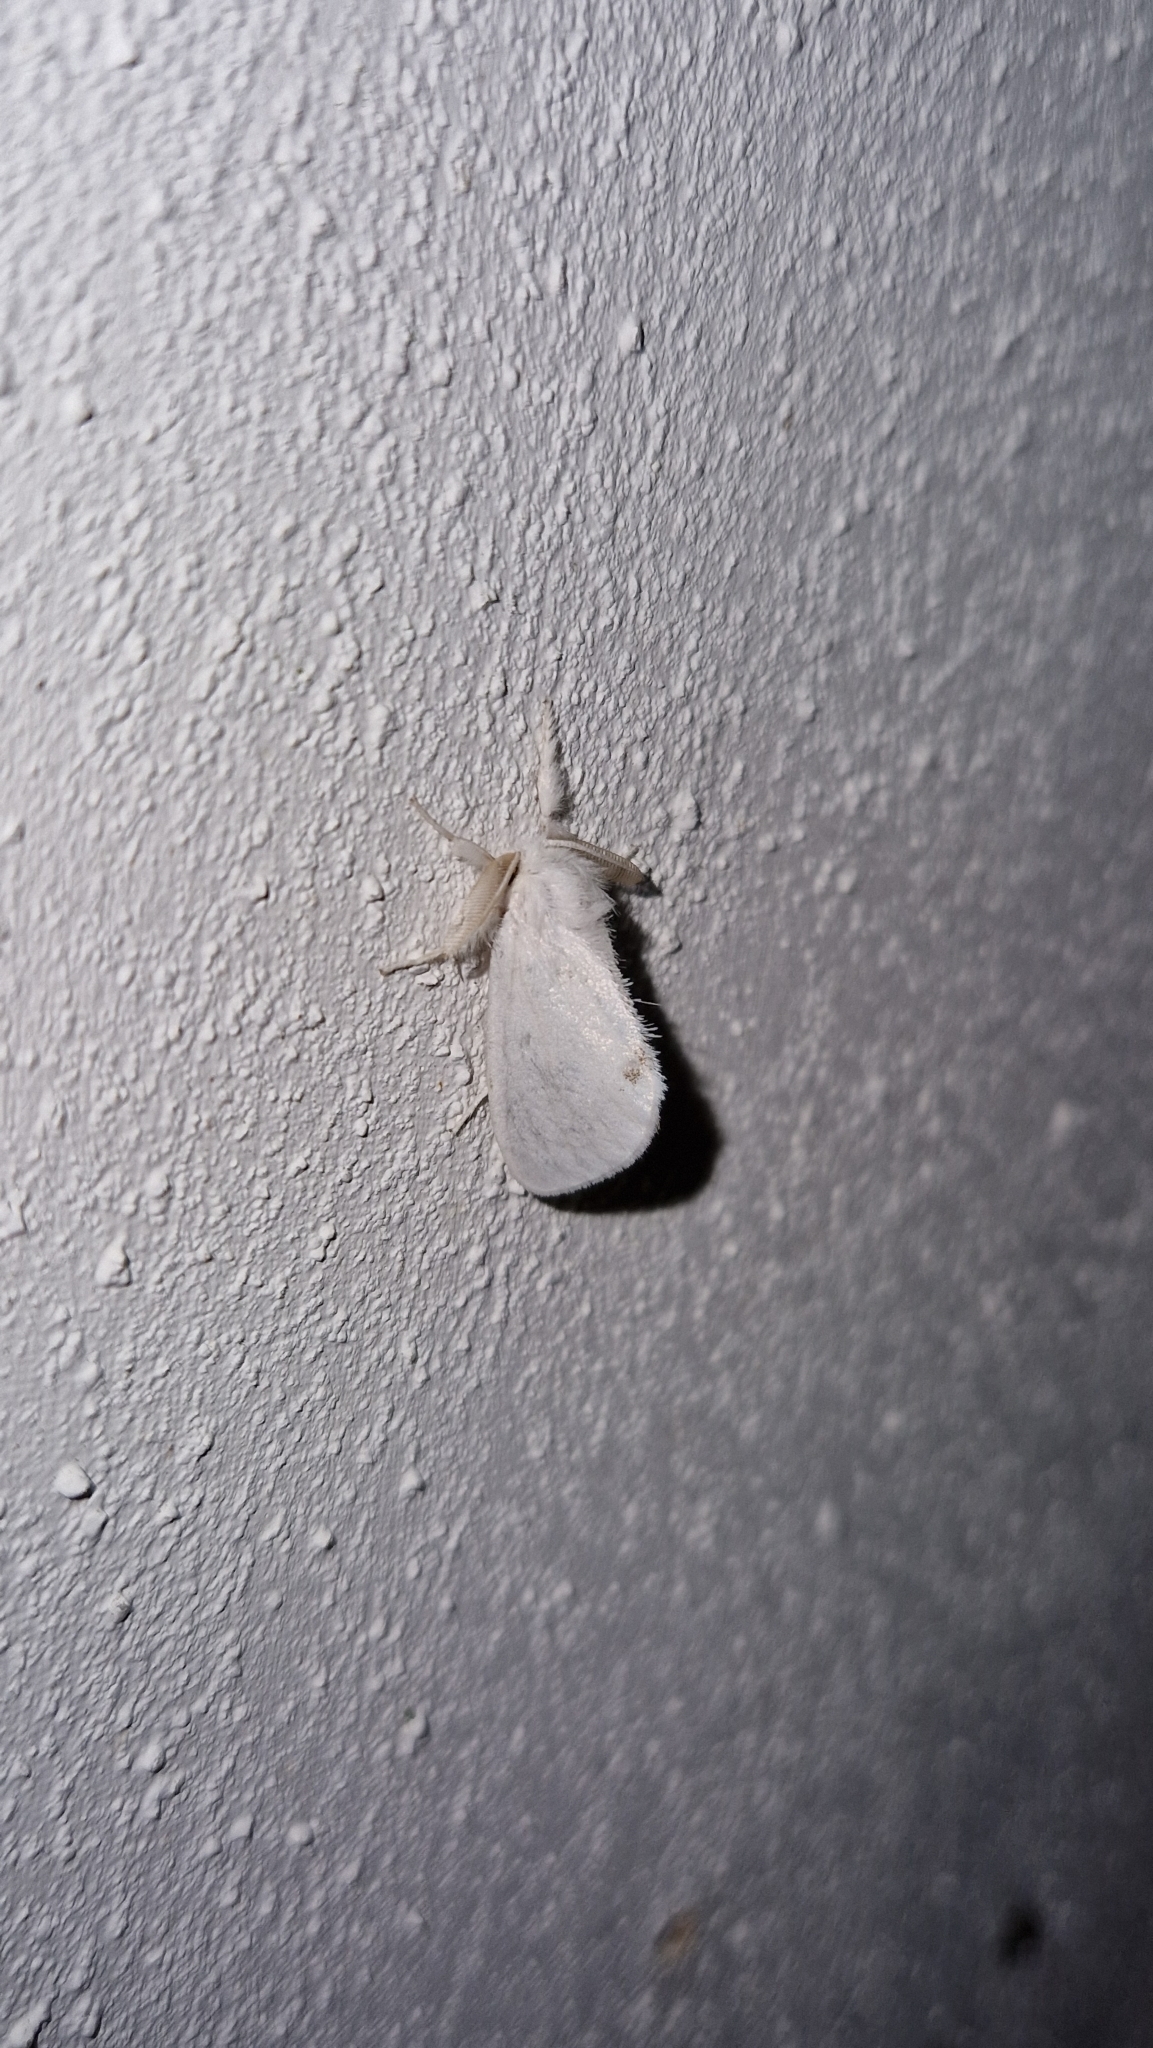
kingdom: Animalia
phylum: Arthropoda
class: Insecta
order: Lepidoptera
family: Erebidae
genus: Sphrageidus
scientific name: Sphrageidus similis
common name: Yellow-tail
